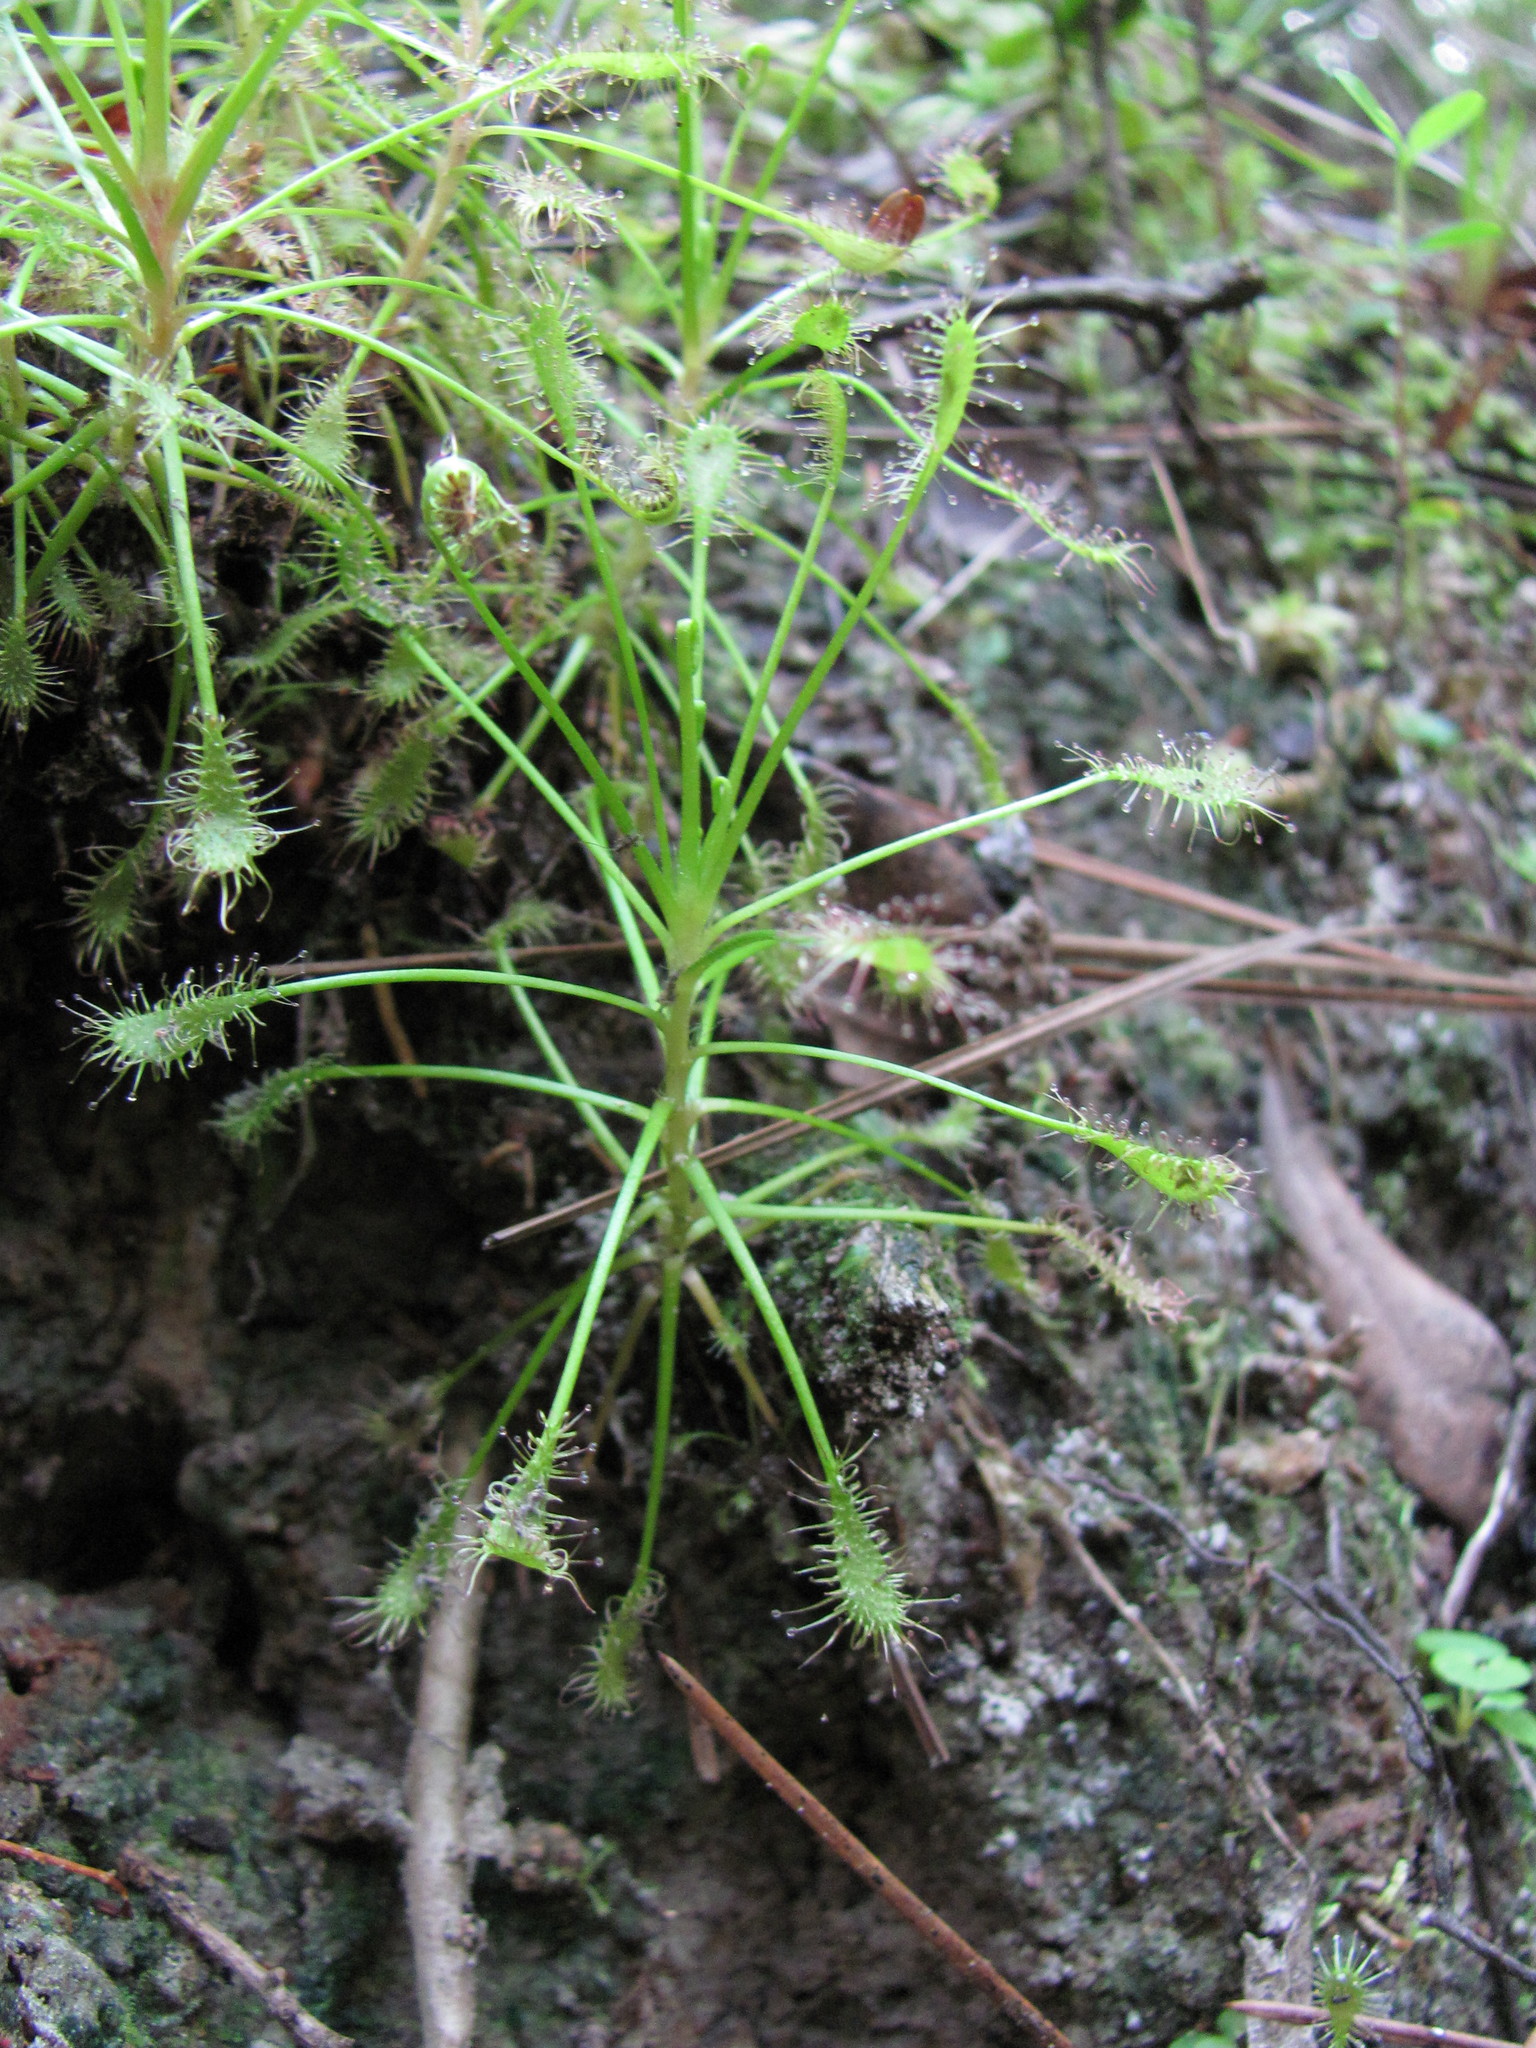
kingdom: Plantae
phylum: Tracheophyta
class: Magnoliopsida
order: Caryophyllales
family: Droseraceae
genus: Drosera
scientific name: Drosera intermedia
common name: Oblong-leaved sundew
